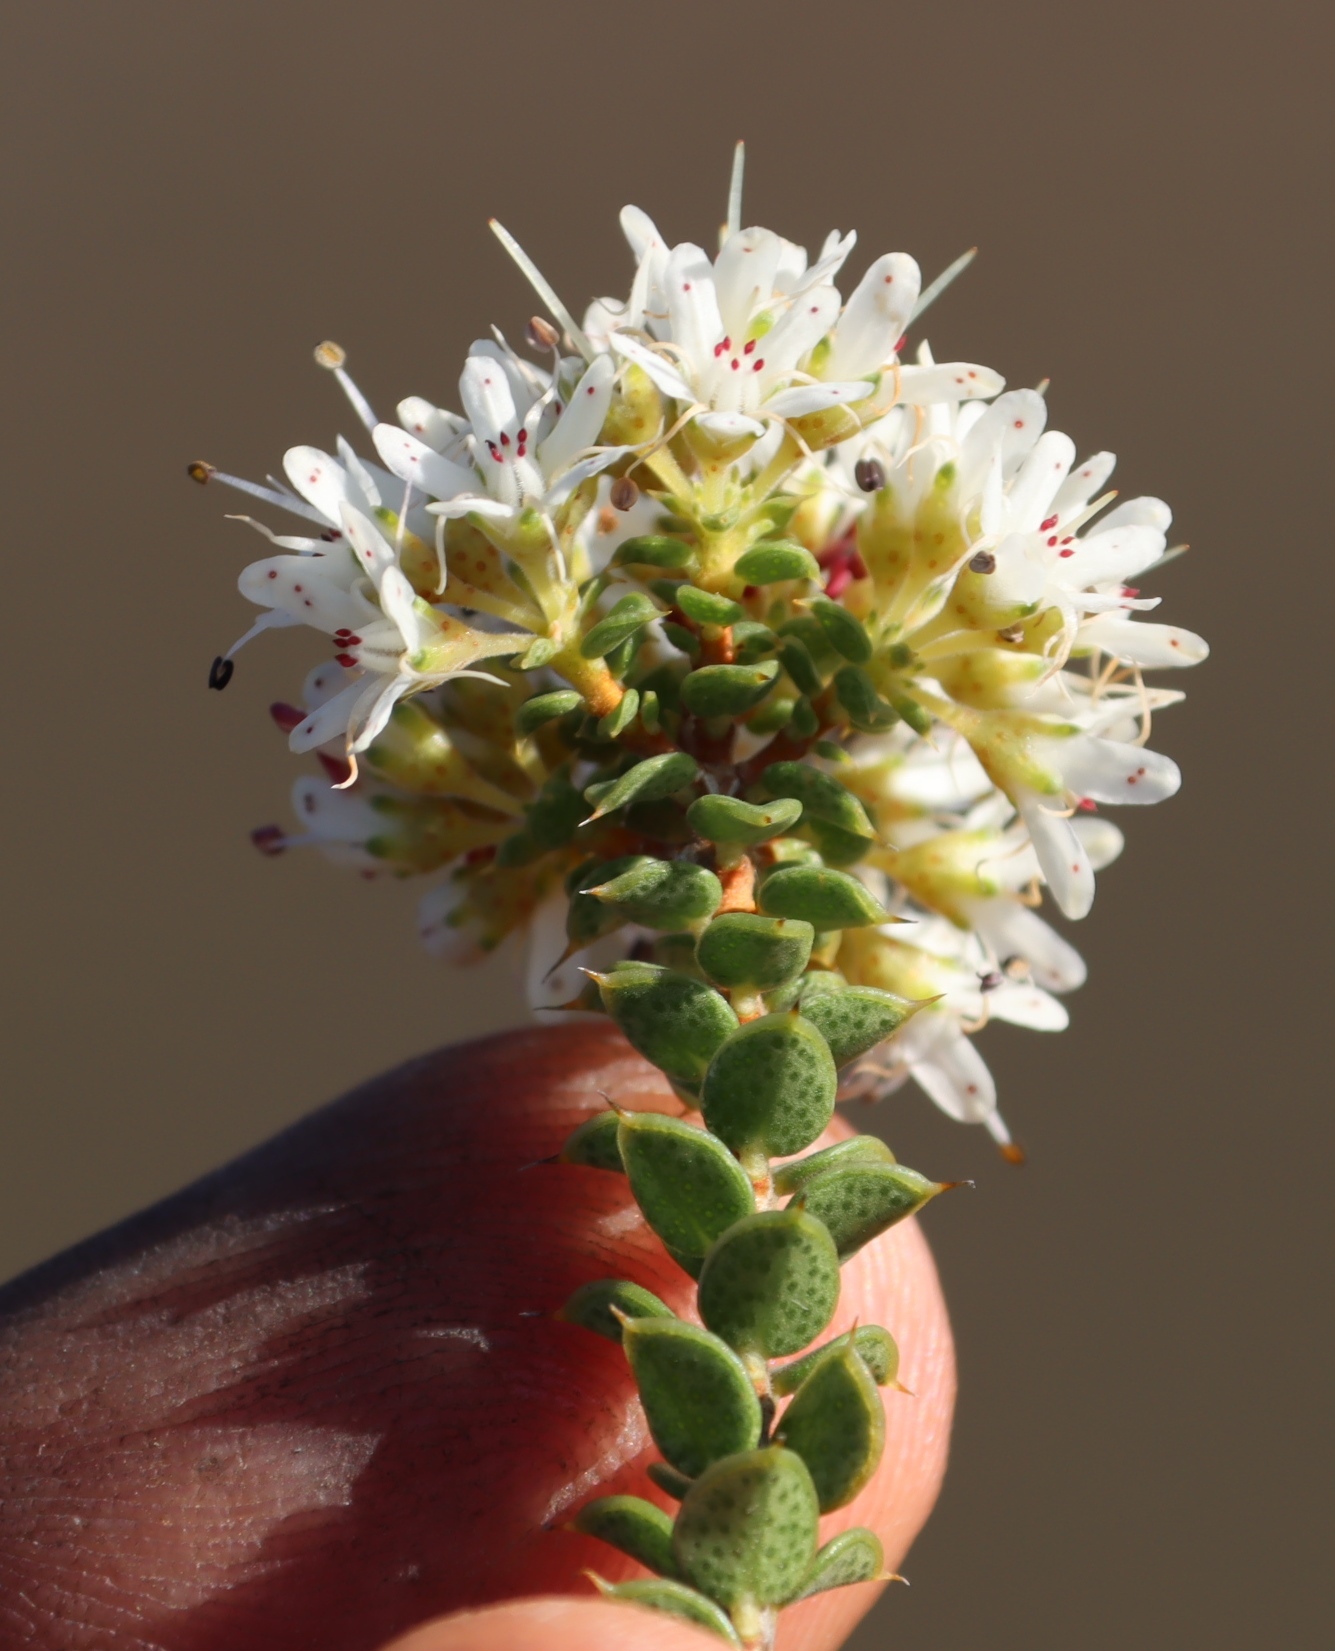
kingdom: Plantae
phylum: Tracheophyta
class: Magnoliopsida
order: Sapindales
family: Rutaceae
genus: Agathosma
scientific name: Agathosma recurvifolia
